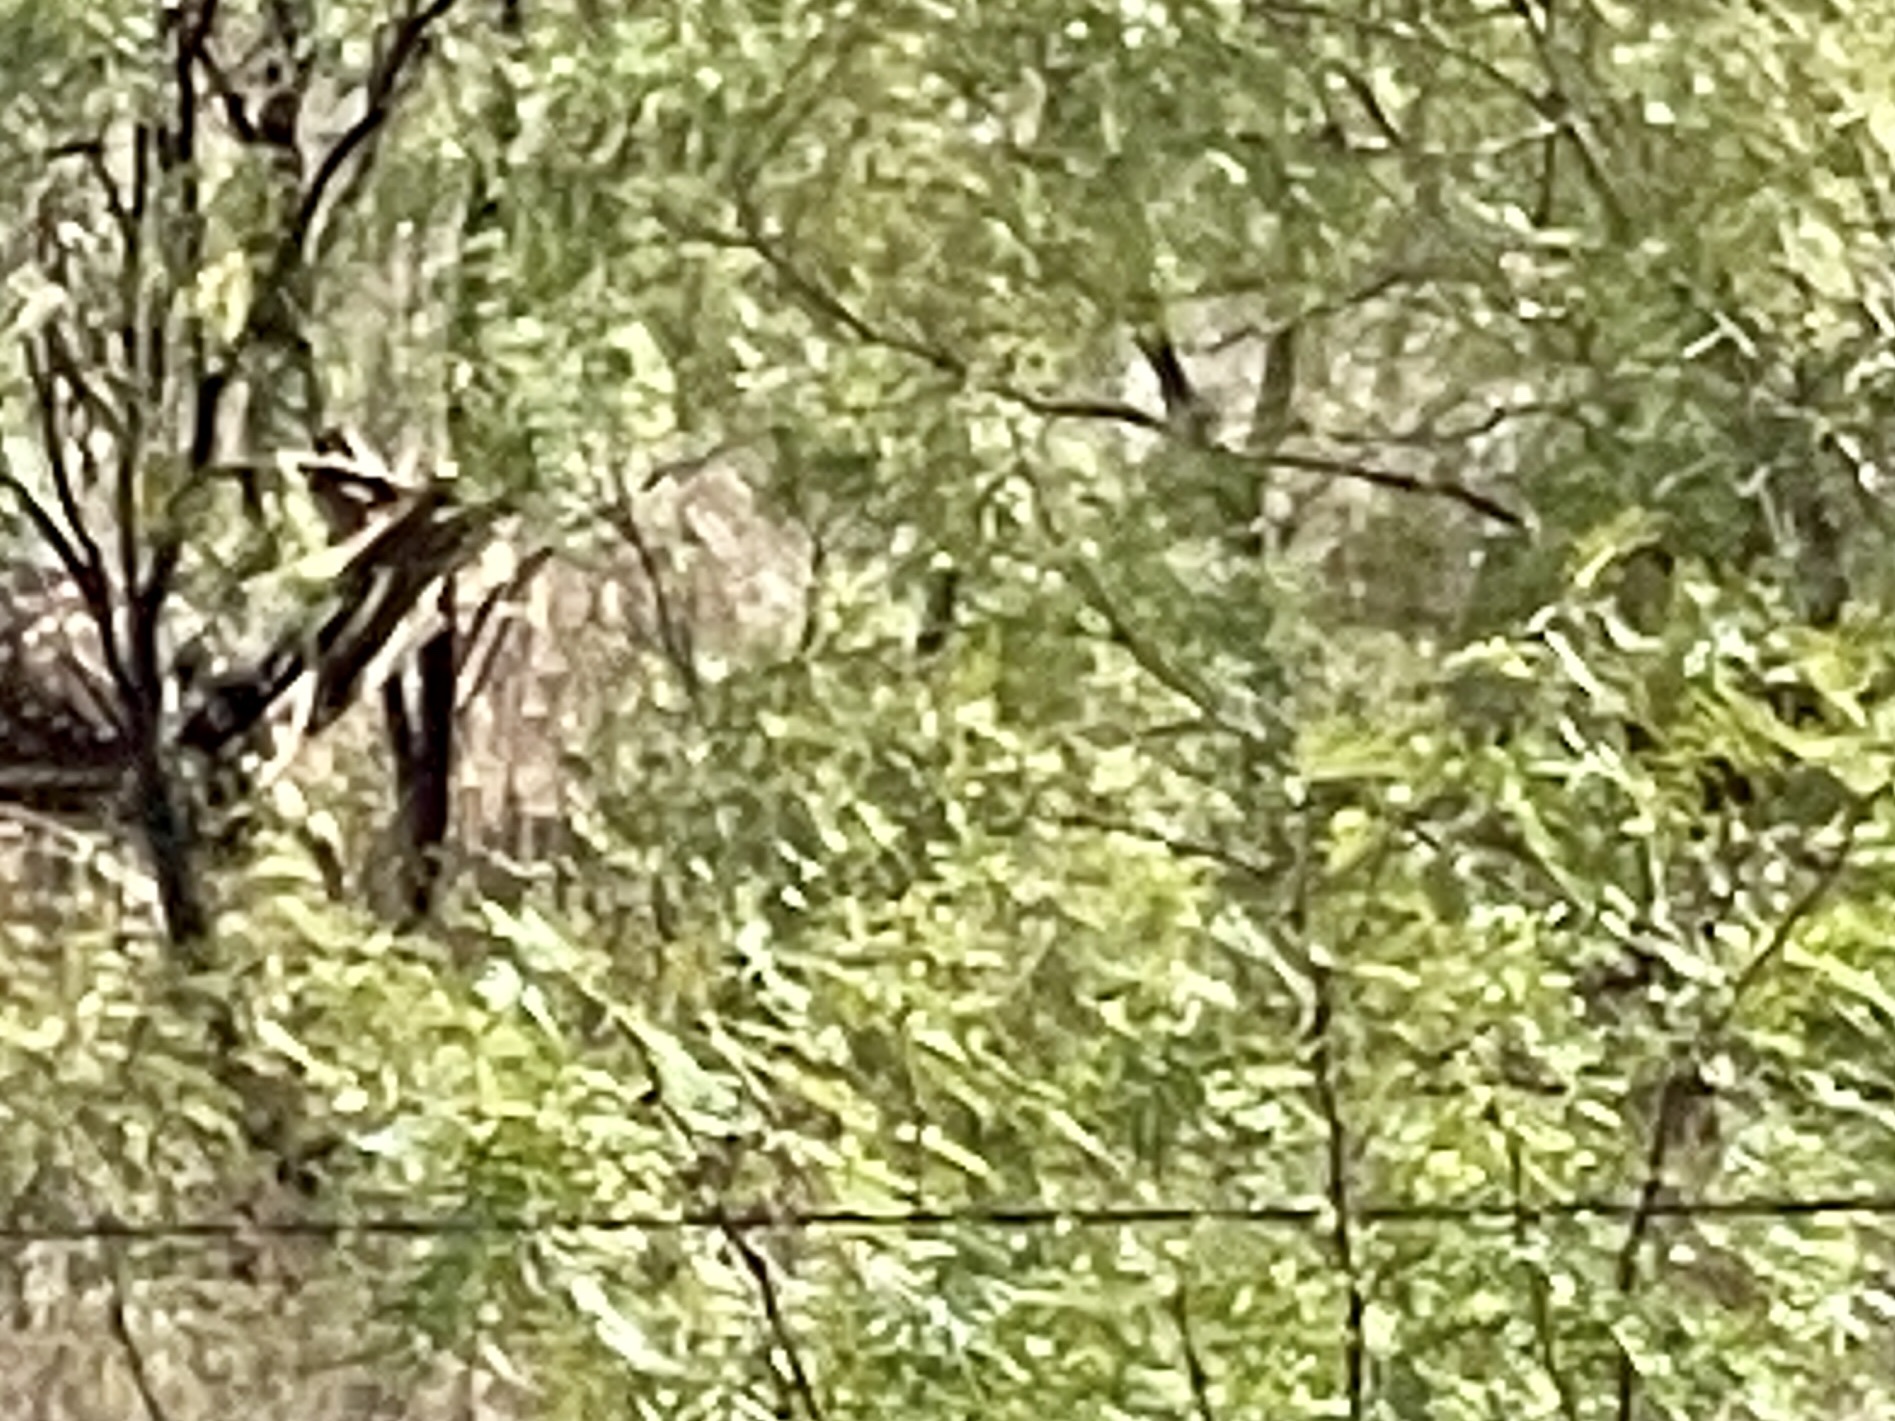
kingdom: Animalia
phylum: Chordata
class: Mammalia
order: Artiodactyla
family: Cervidae
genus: Axis
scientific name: Axis axis
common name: Chital
